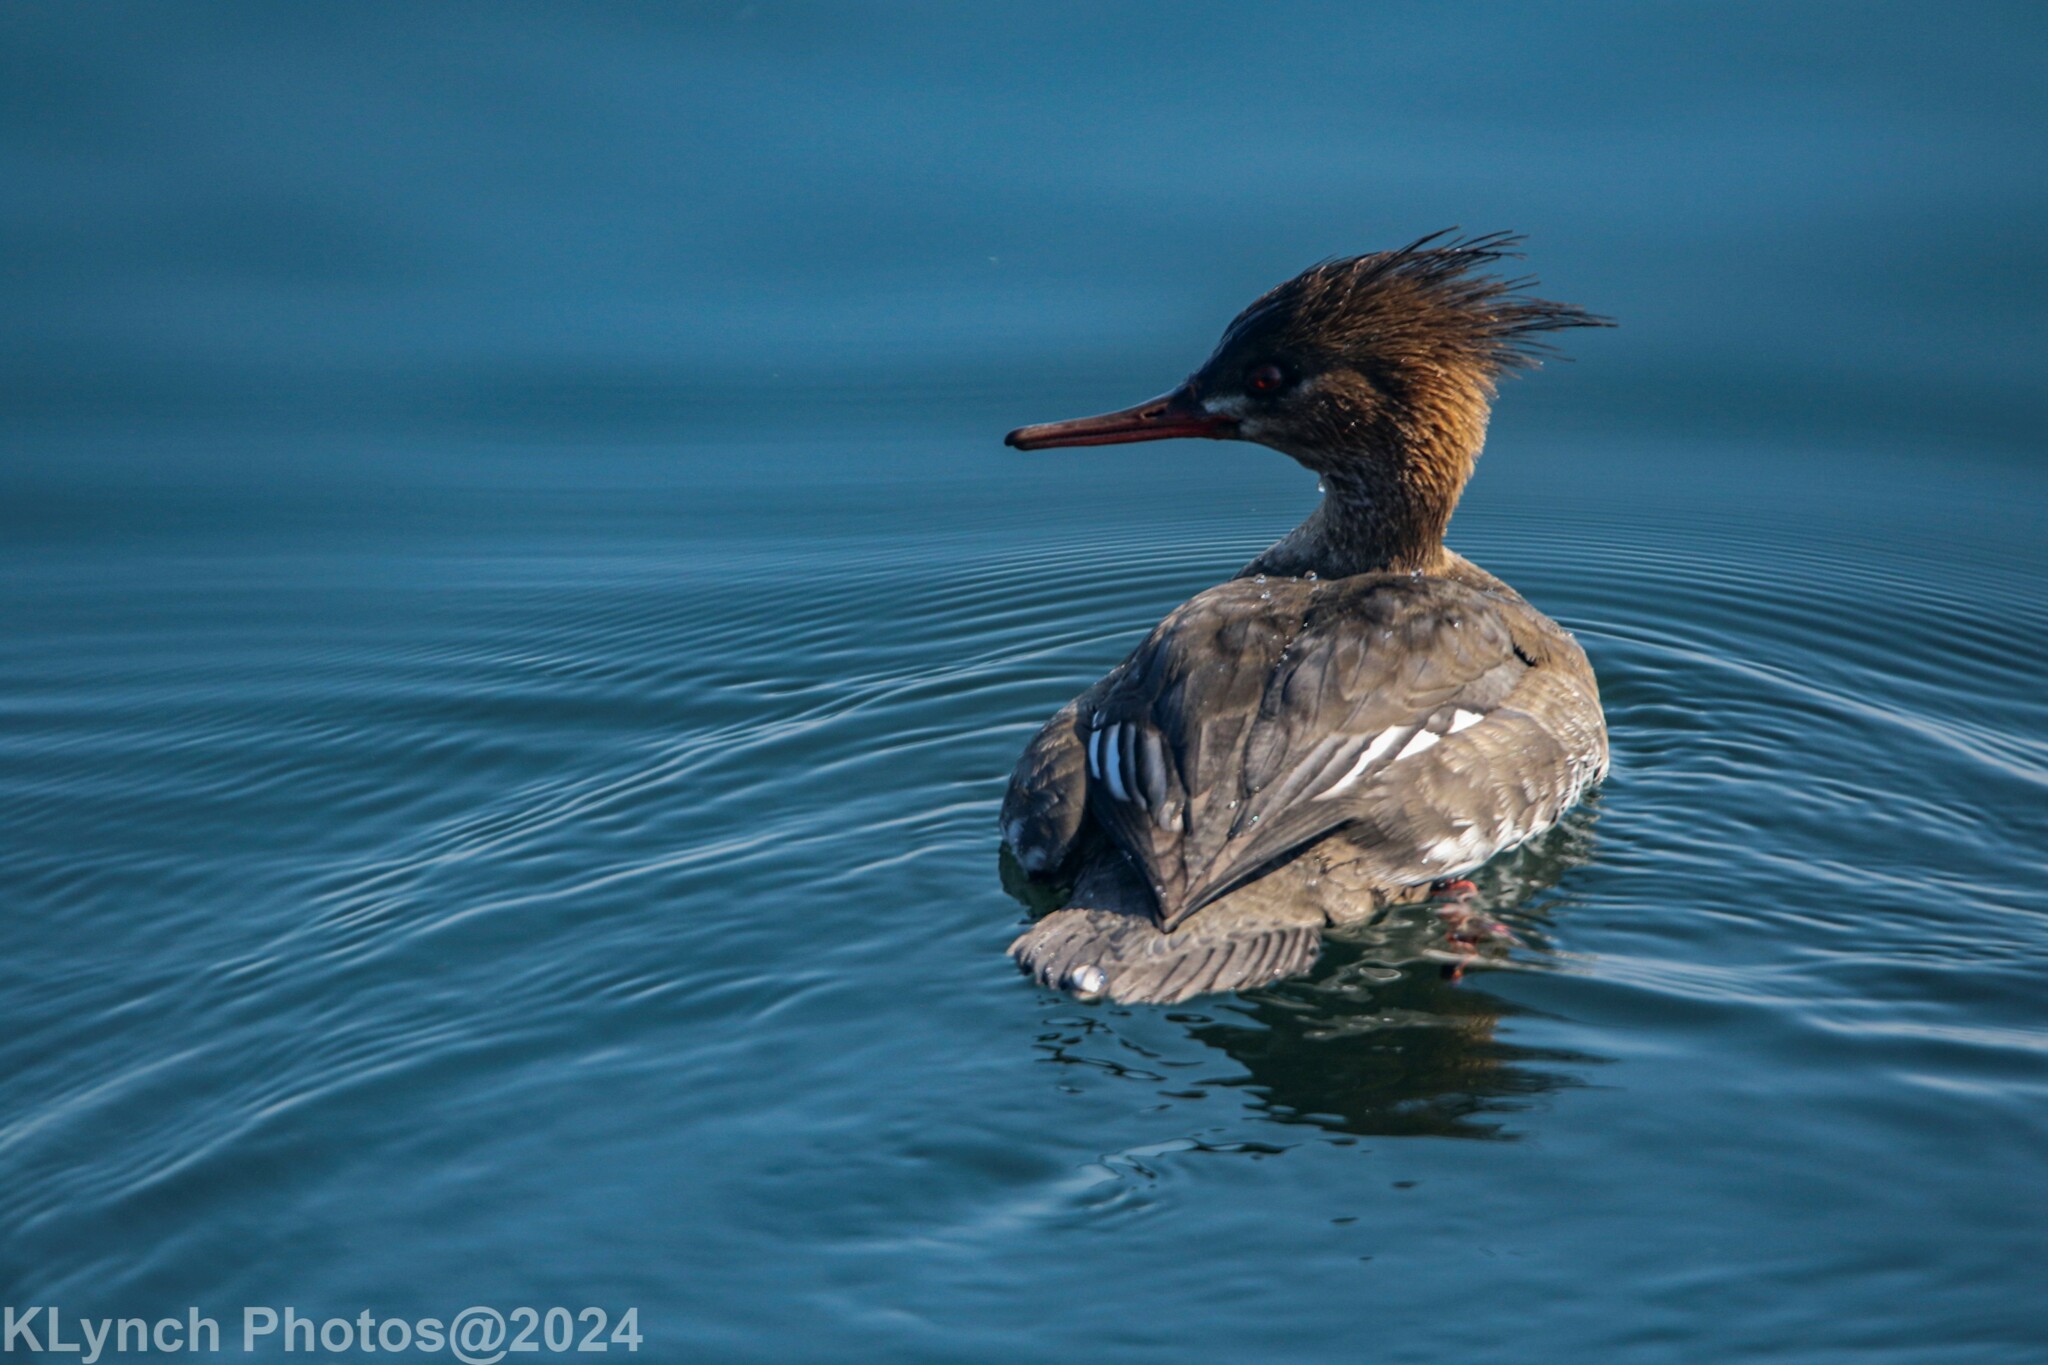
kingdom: Animalia
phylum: Chordata
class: Aves
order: Anseriformes
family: Anatidae
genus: Mergus
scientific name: Mergus serrator
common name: Red-breasted merganser
